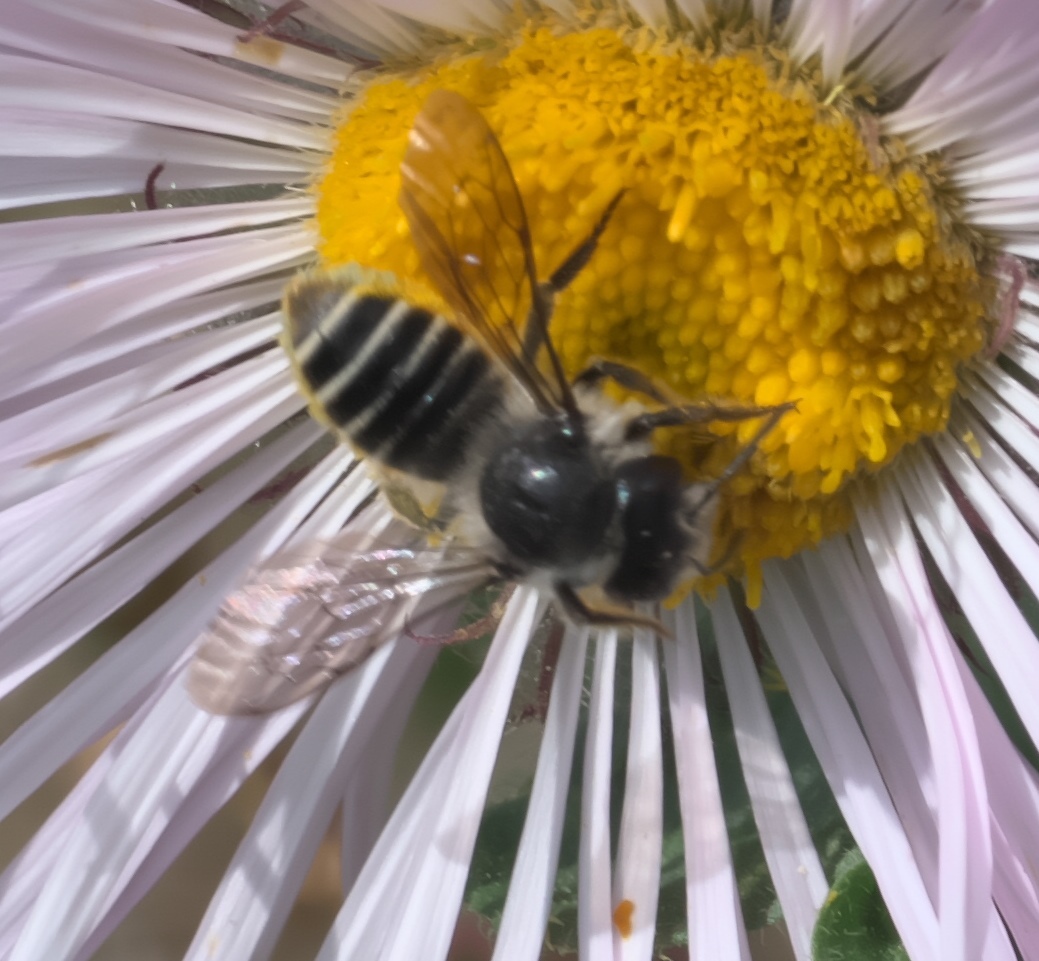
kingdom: Animalia
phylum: Arthropoda
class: Insecta
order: Hymenoptera
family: Megachilidae
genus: Megachile
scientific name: Megachile
